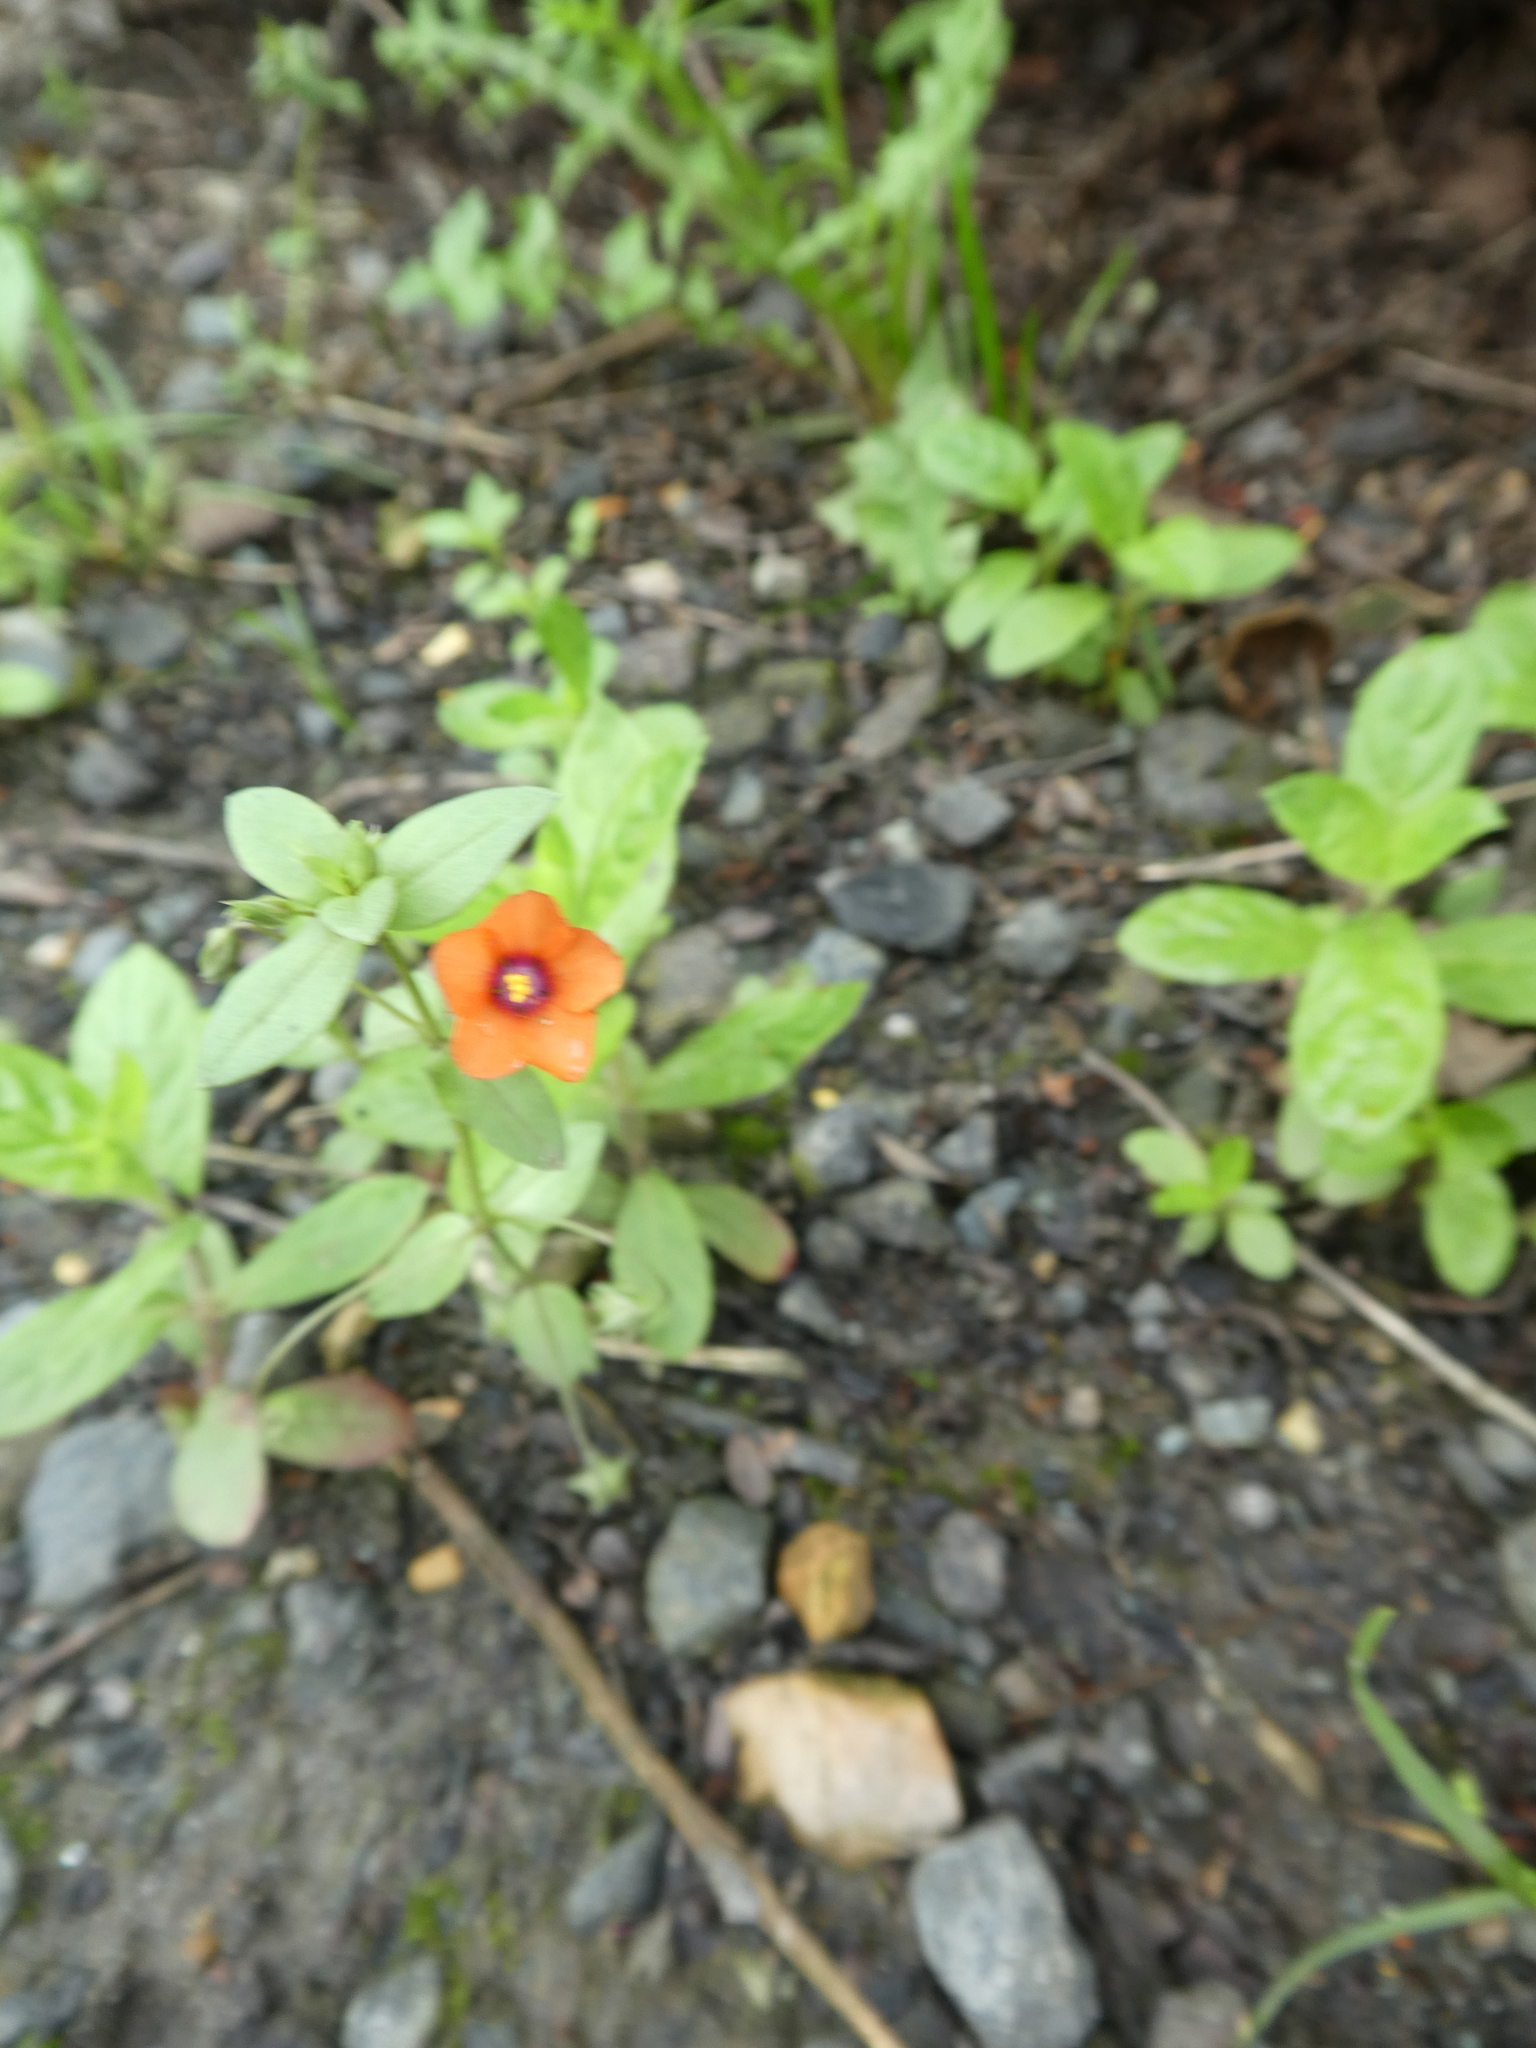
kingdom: Plantae
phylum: Tracheophyta
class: Magnoliopsida
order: Ericales
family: Primulaceae
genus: Lysimachia
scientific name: Lysimachia arvensis
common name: Scarlet pimpernel
